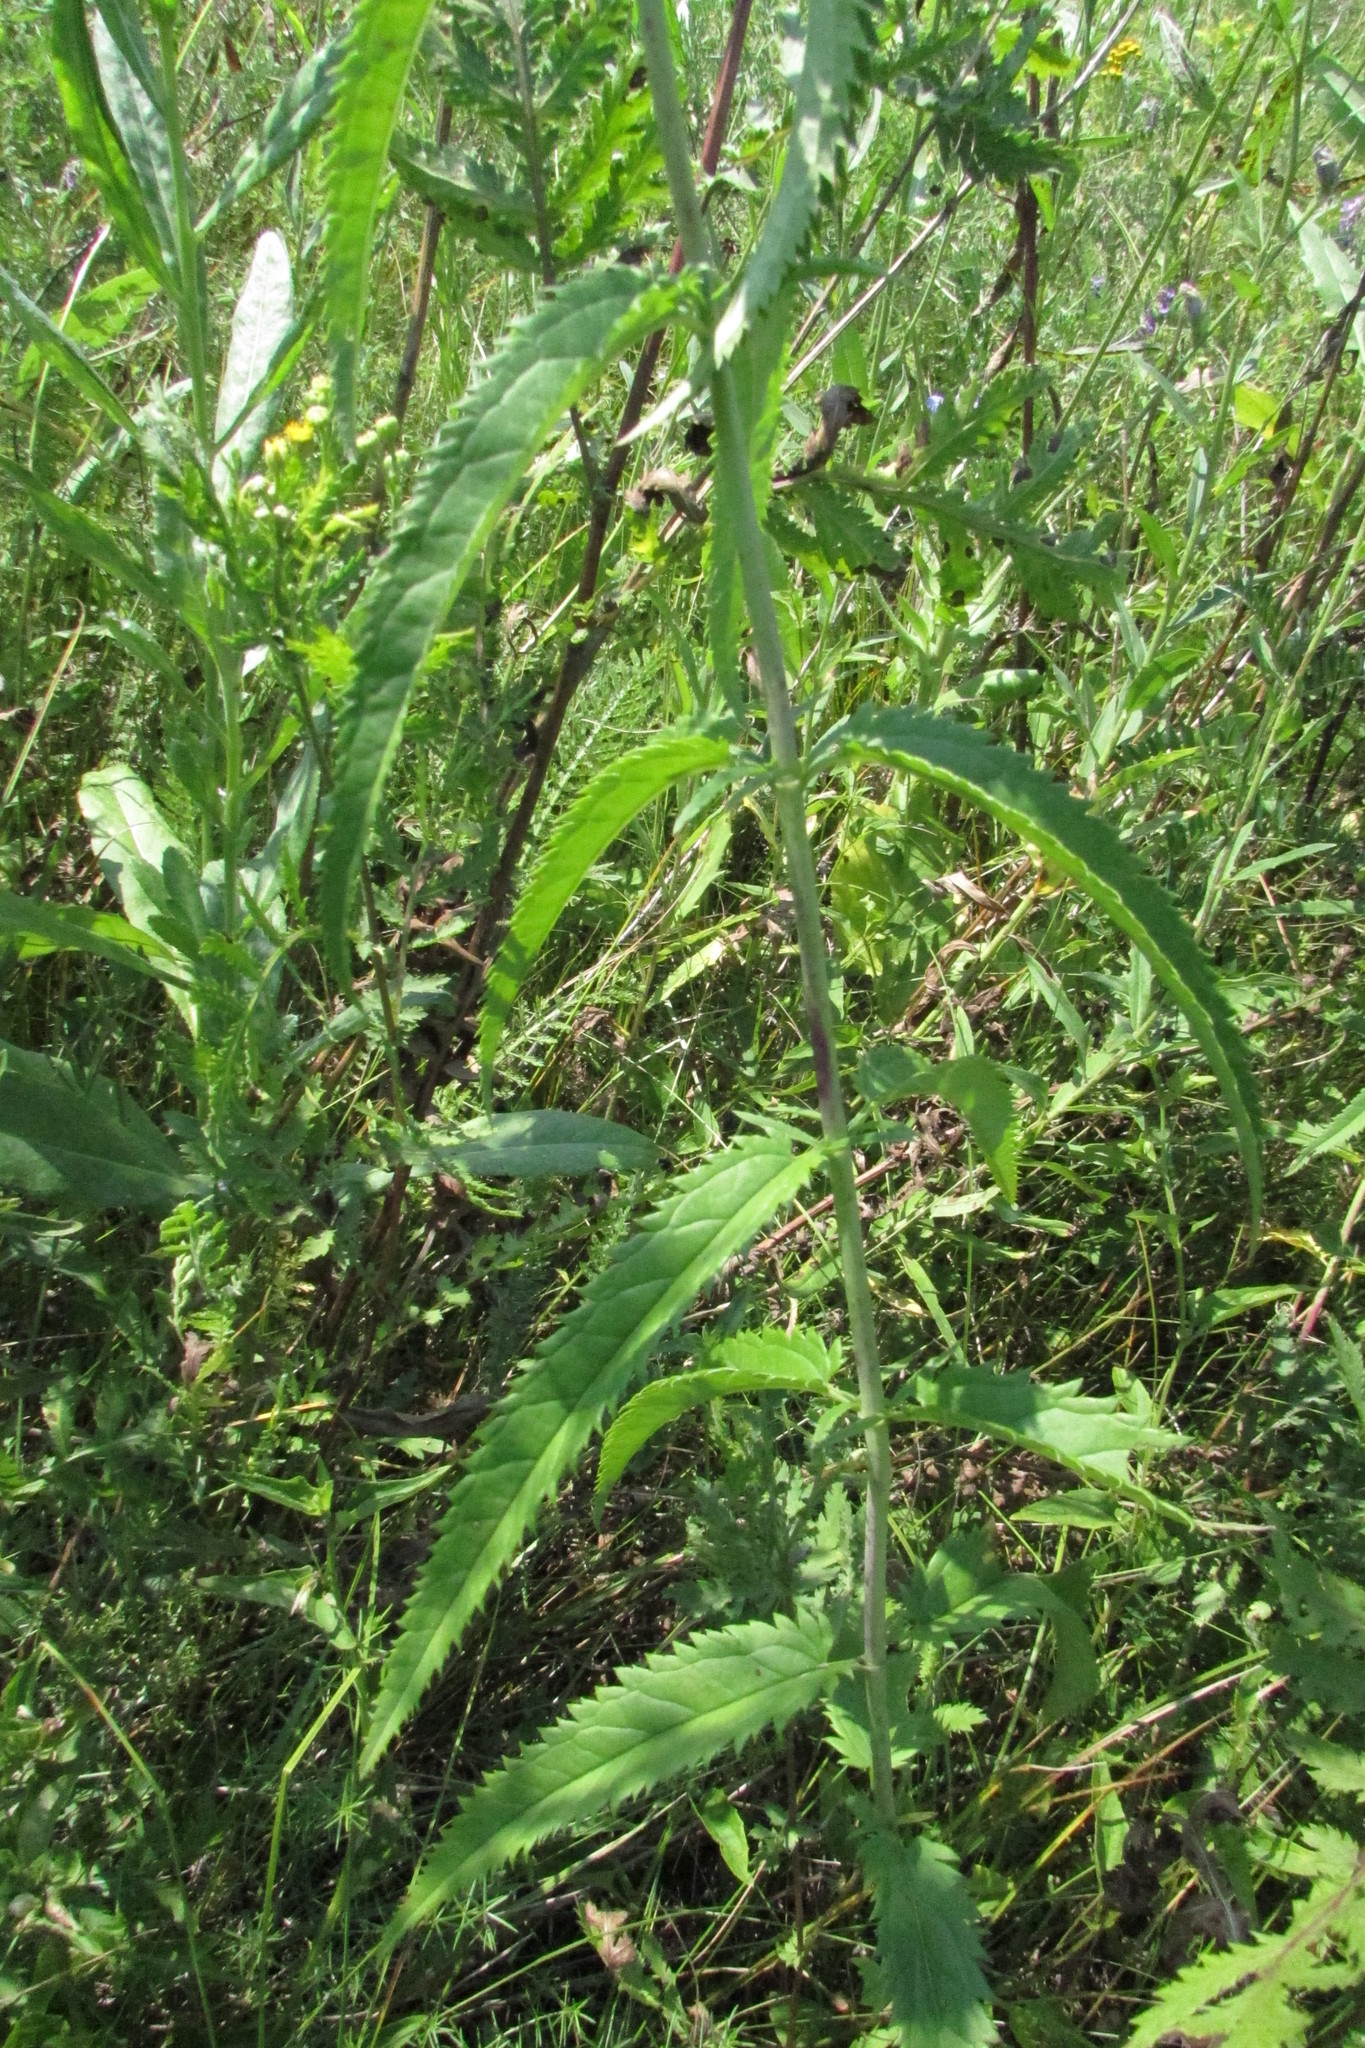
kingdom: Plantae
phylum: Tracheophyta
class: Magnoliopsida
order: Lamiales
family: Plantaginaceae
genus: Veronica
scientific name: Veronica longifolia
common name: Garden speedwell
